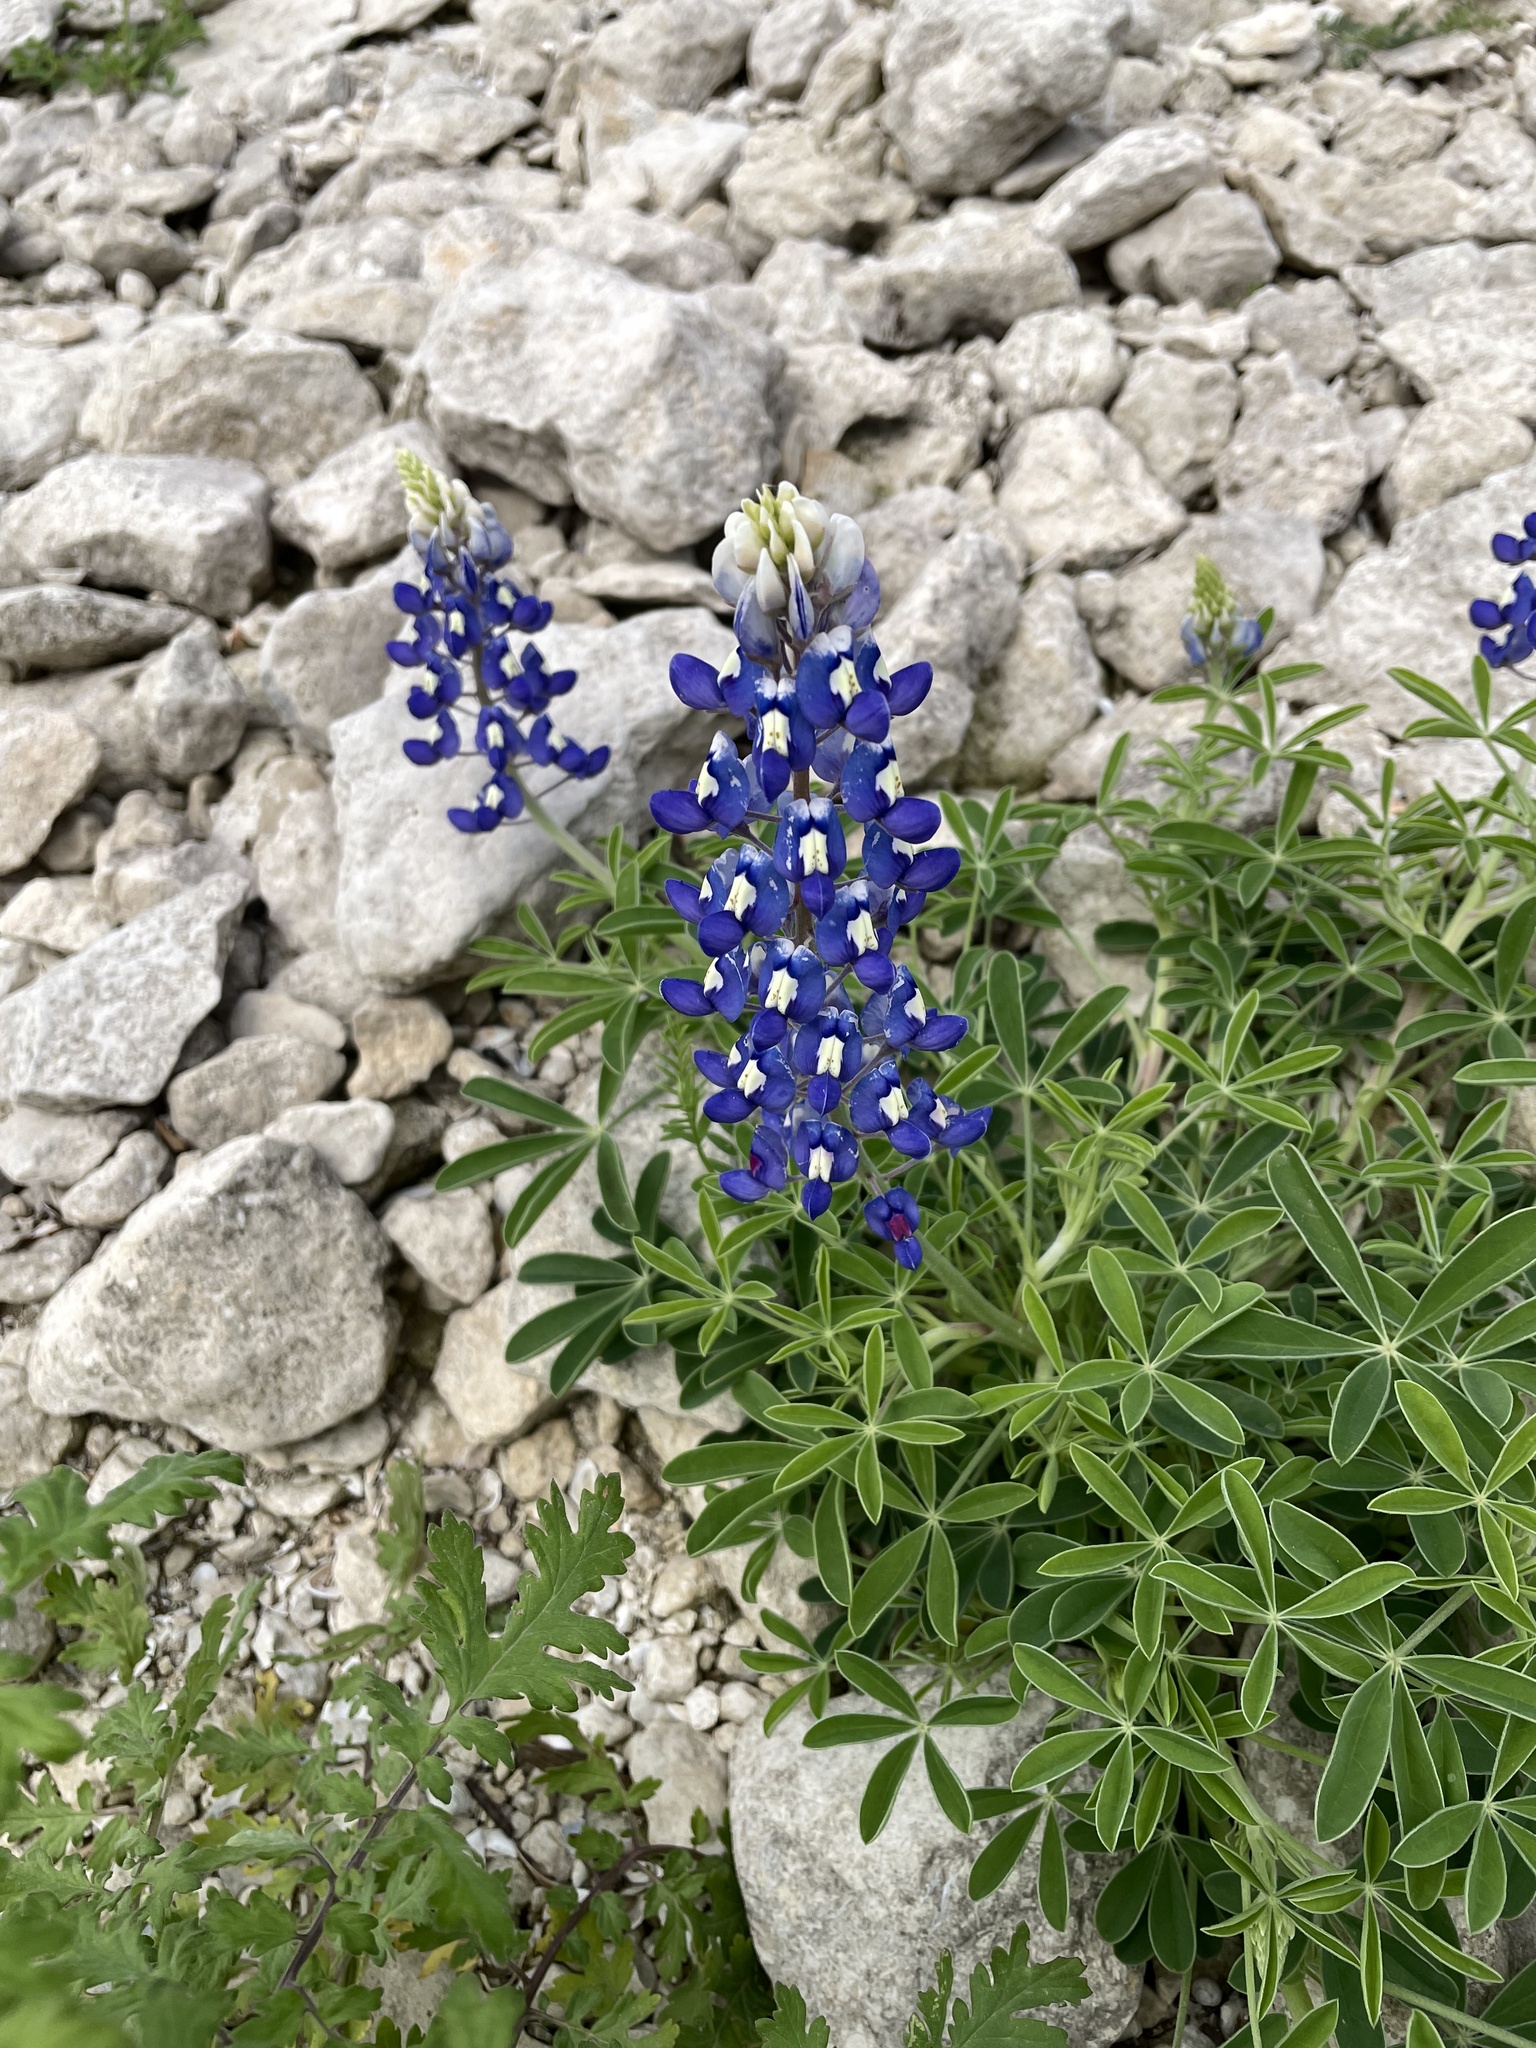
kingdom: Plantae
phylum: Tracheophyta
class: Magnoliopsida
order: Fabales
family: Fabaceae
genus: Lupinus
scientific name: Lupinus texensis
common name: Texas bluebonnet
